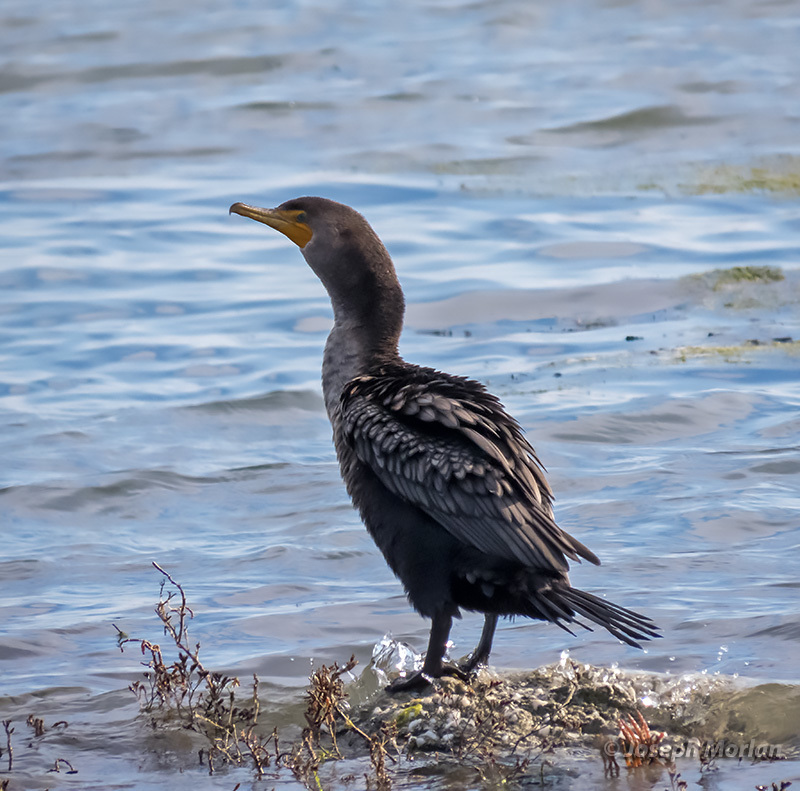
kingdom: Animalia
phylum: Chordata
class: Aves
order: Suliformes
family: Phalacrocoracidae
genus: Phalacrocorax
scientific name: Phalacrocorax auritus
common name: Double-crested cormorant
